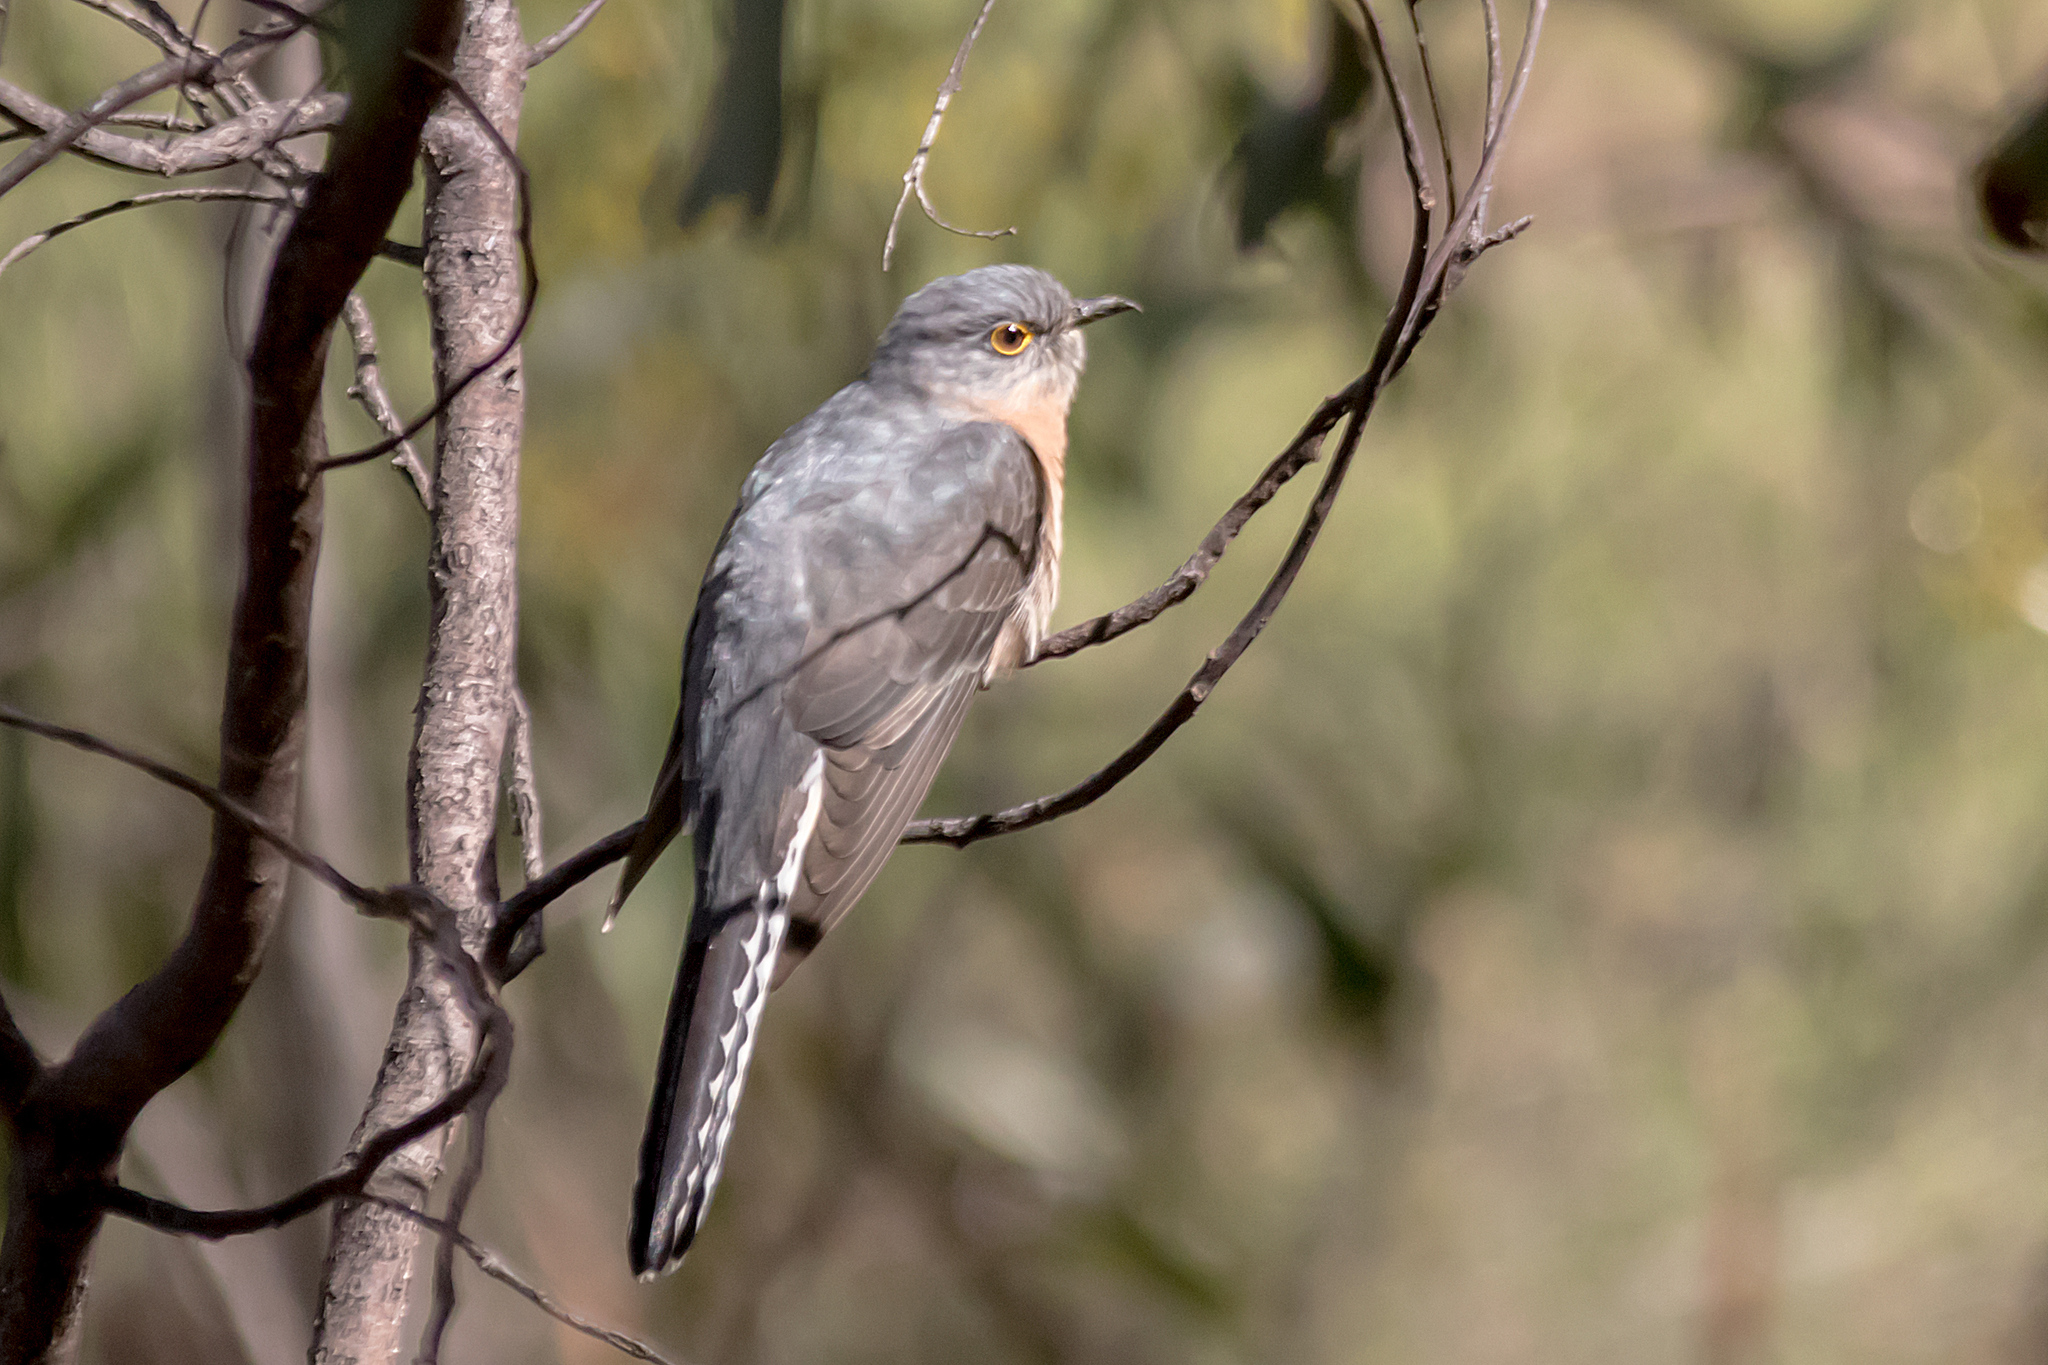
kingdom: Animalia
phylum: Chordata
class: Aves
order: Cuculiformes
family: Cuculidae
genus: Cacomantis
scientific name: Cacomantis flabelliformis
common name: Fan-tailed cuckoo
